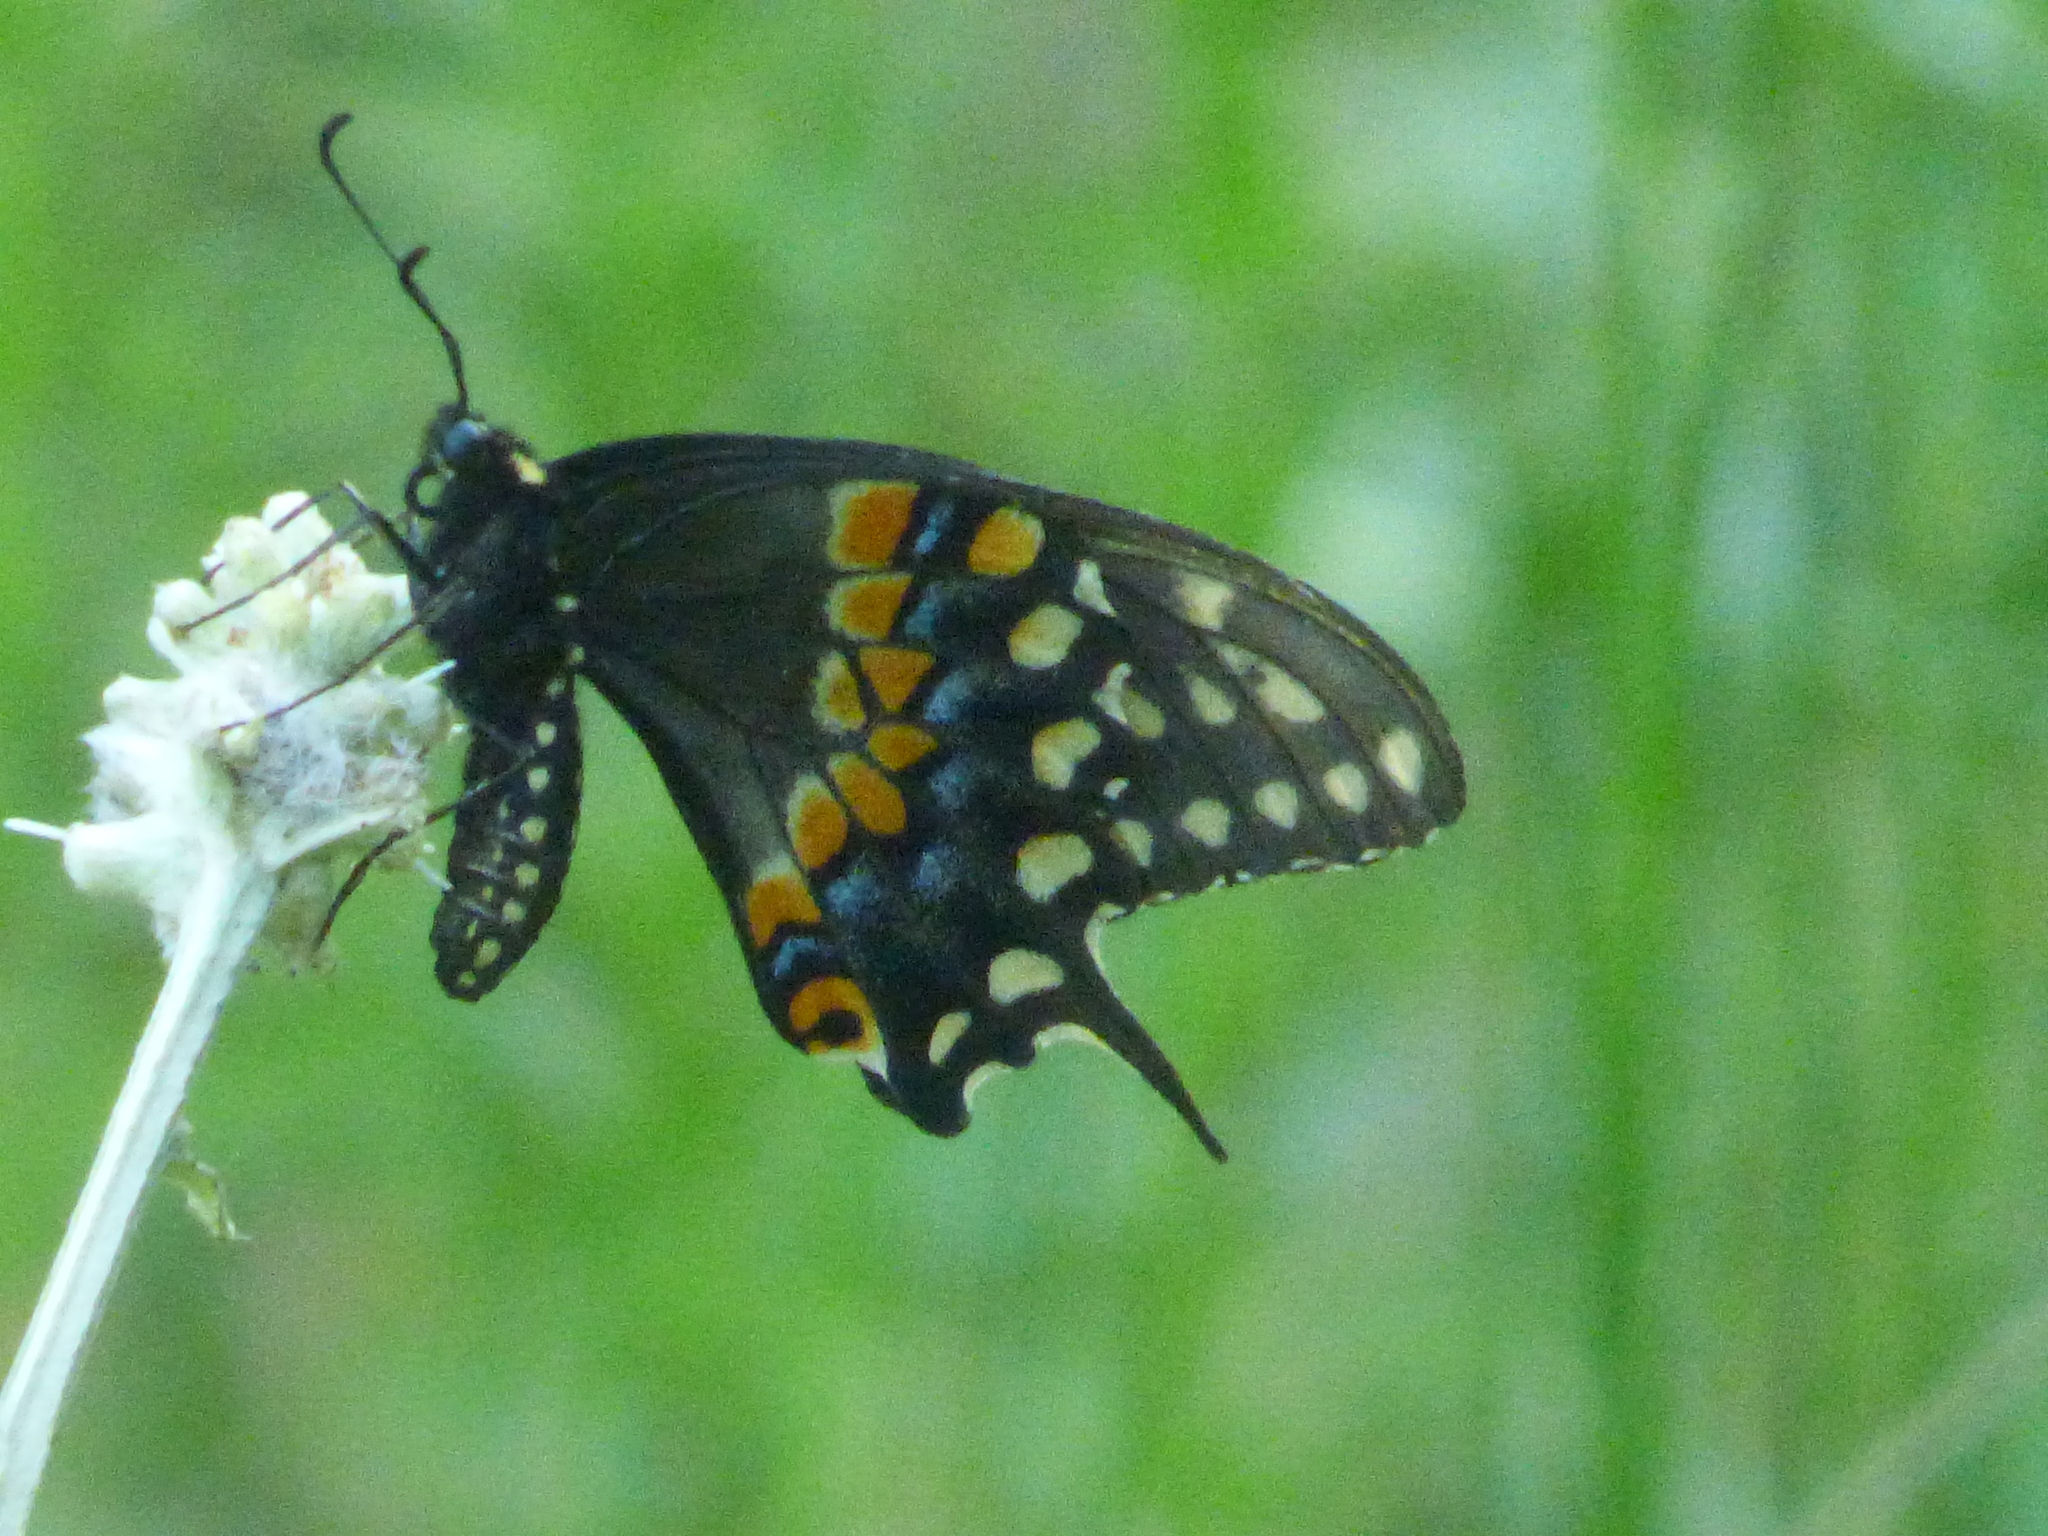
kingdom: Animalia
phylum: Arthropoda
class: Insecta
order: Lepidoptera
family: Papilionidae
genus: Papilio
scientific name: Papilio polyxenes
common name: Black swallowtail
